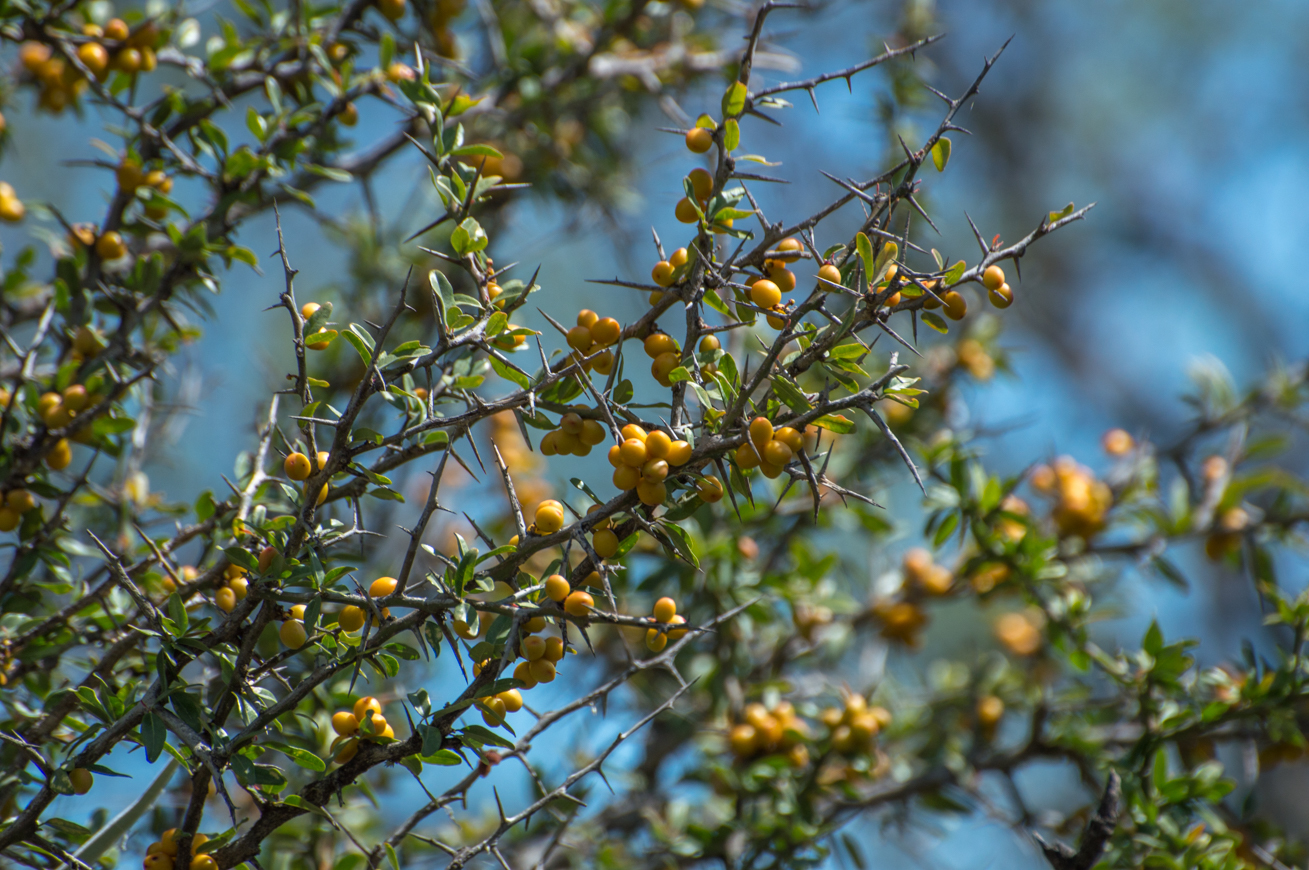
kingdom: Plantae
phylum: Tracheophyta
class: Magnoliopsida
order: Sapindales
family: Simaroubaceae
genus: Castela
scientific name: Castela coccinea
